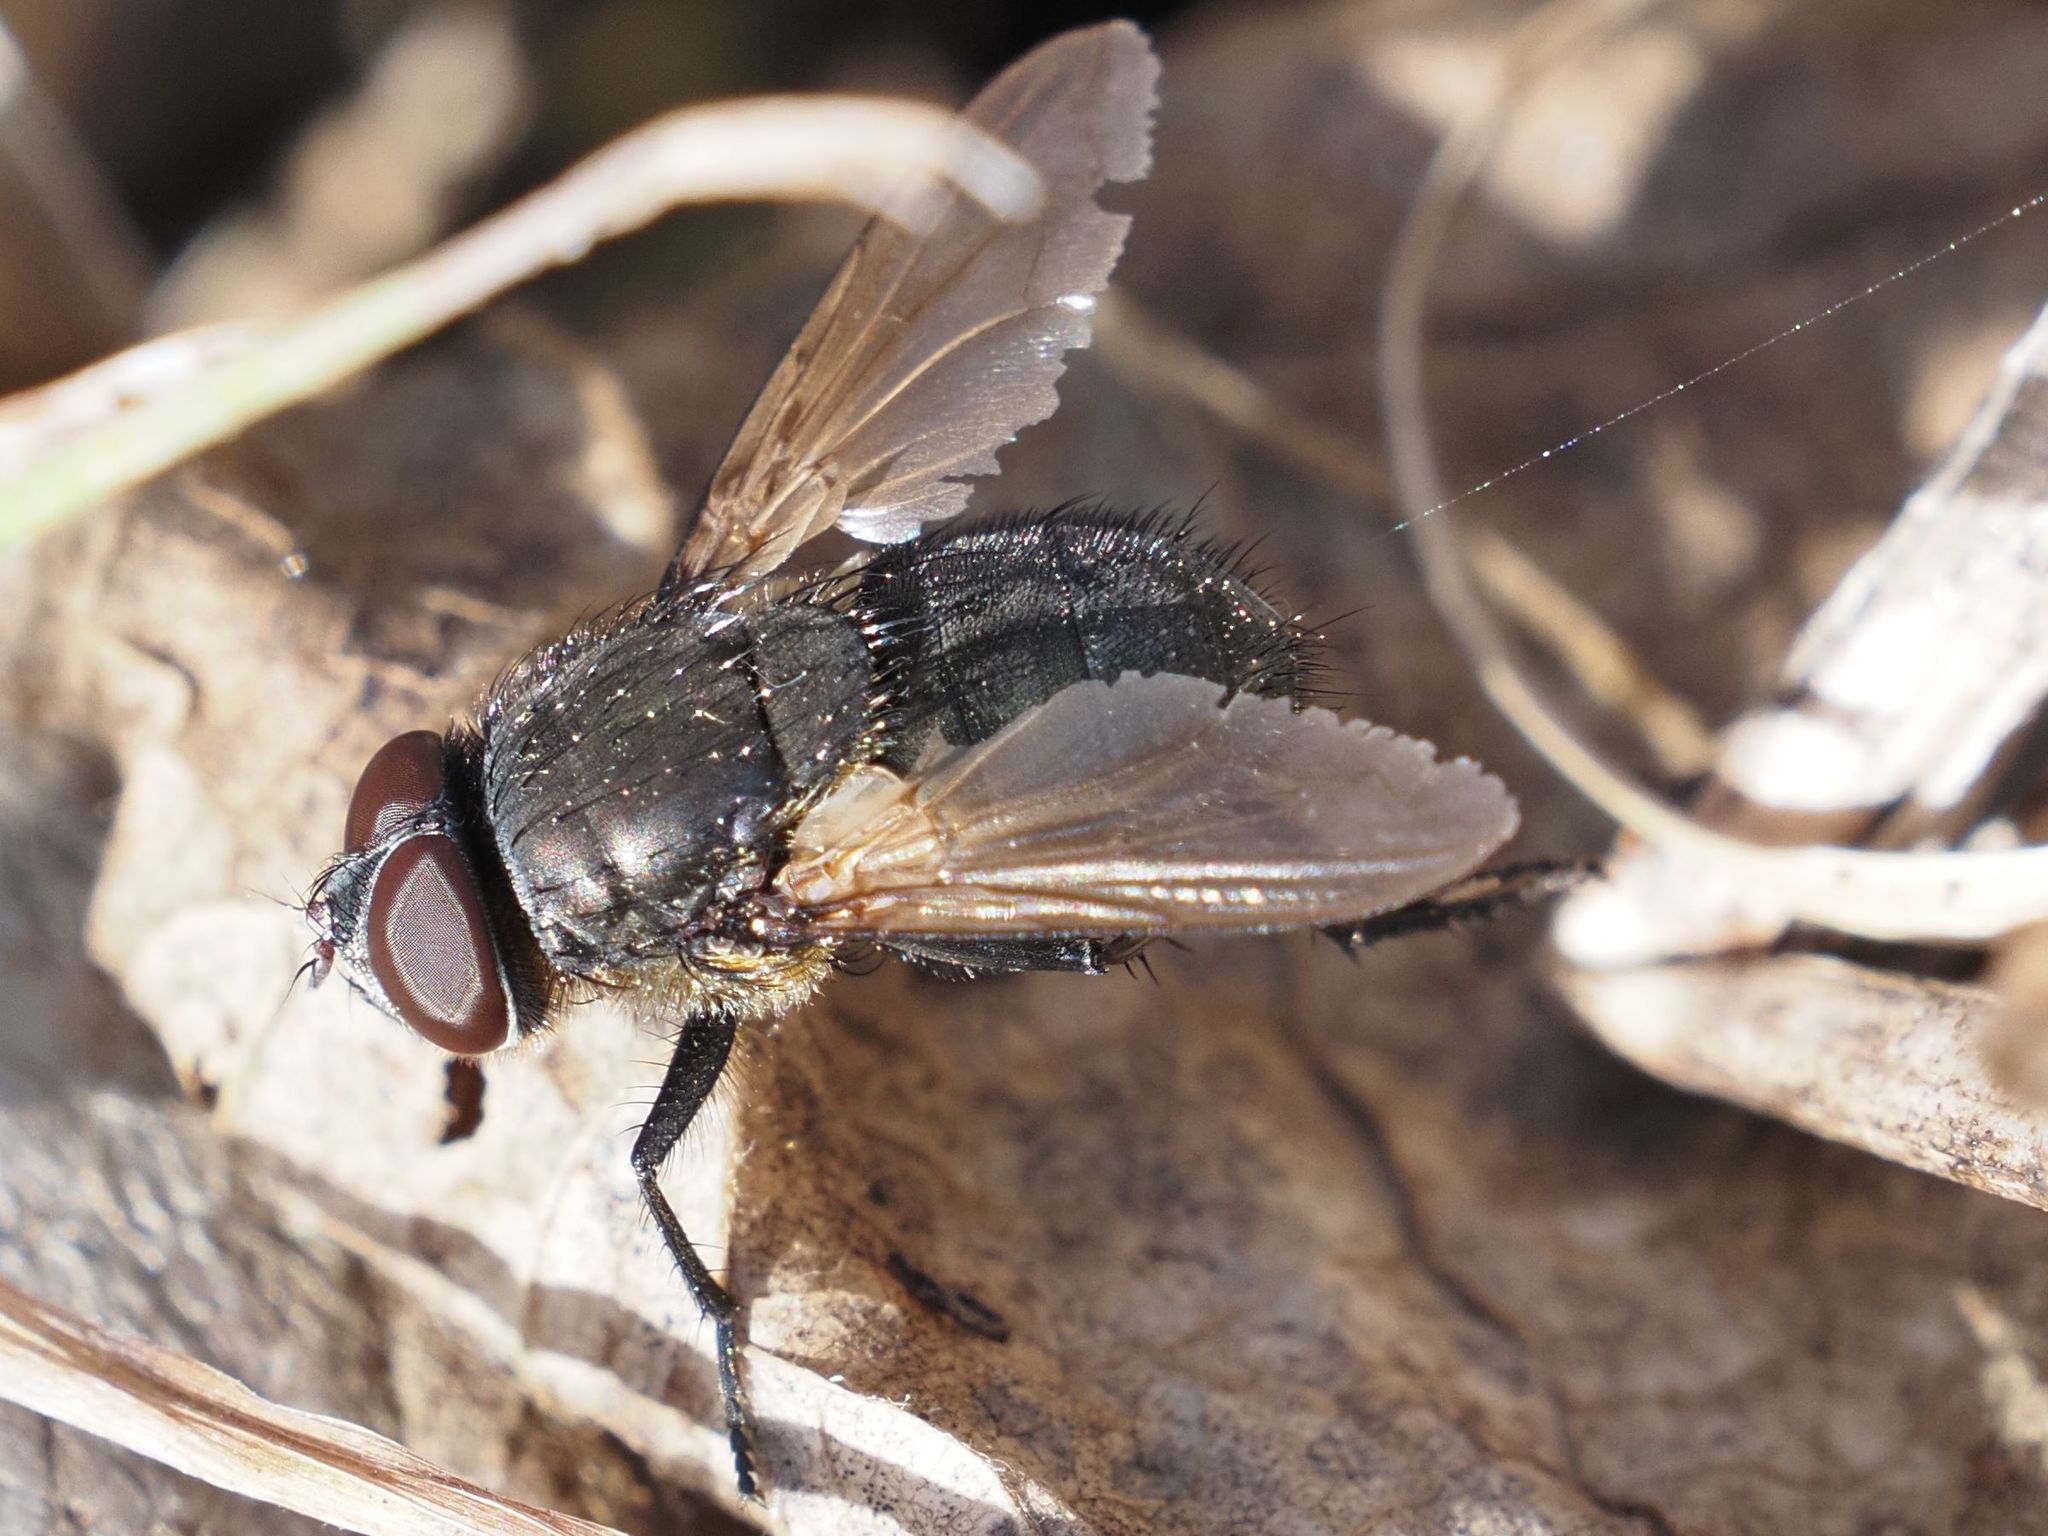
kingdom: Animalia
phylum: Arthropoda
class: Insecta
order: Diptera
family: Polleniidae
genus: Pollenia
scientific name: Pollenia amentaria
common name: Black-bellied clusterfly
